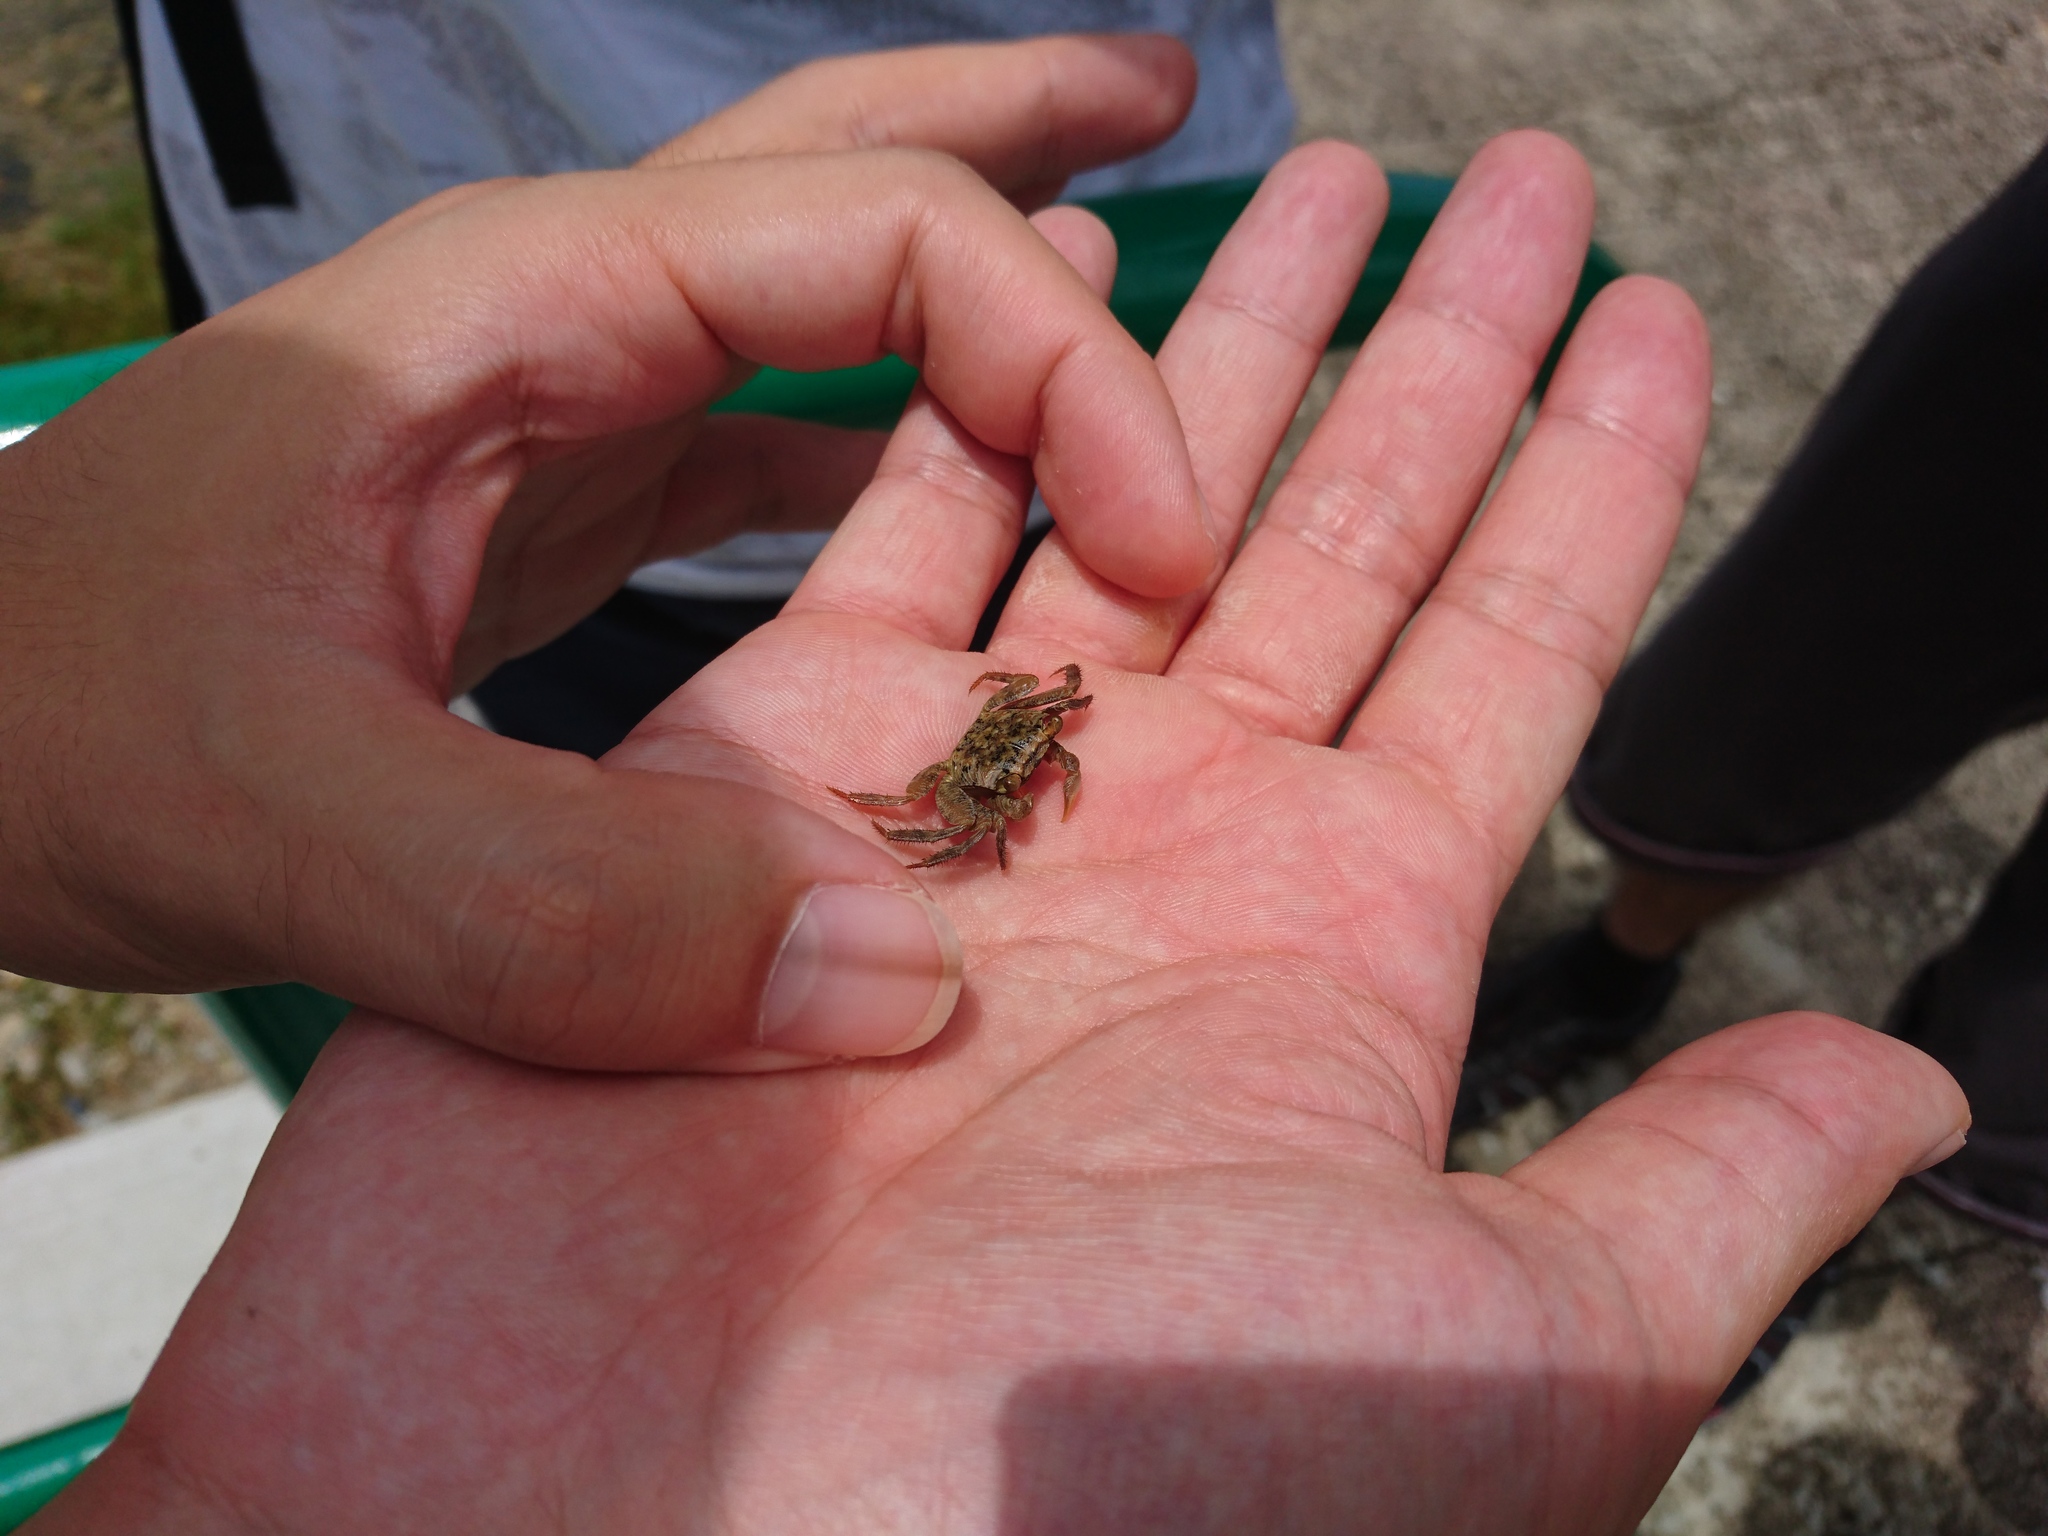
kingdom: Animalia
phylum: Arthropoda
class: Malacostraca
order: Decapoda
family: Sesarmidae
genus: Parasesarma
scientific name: Parasesarma pictum
